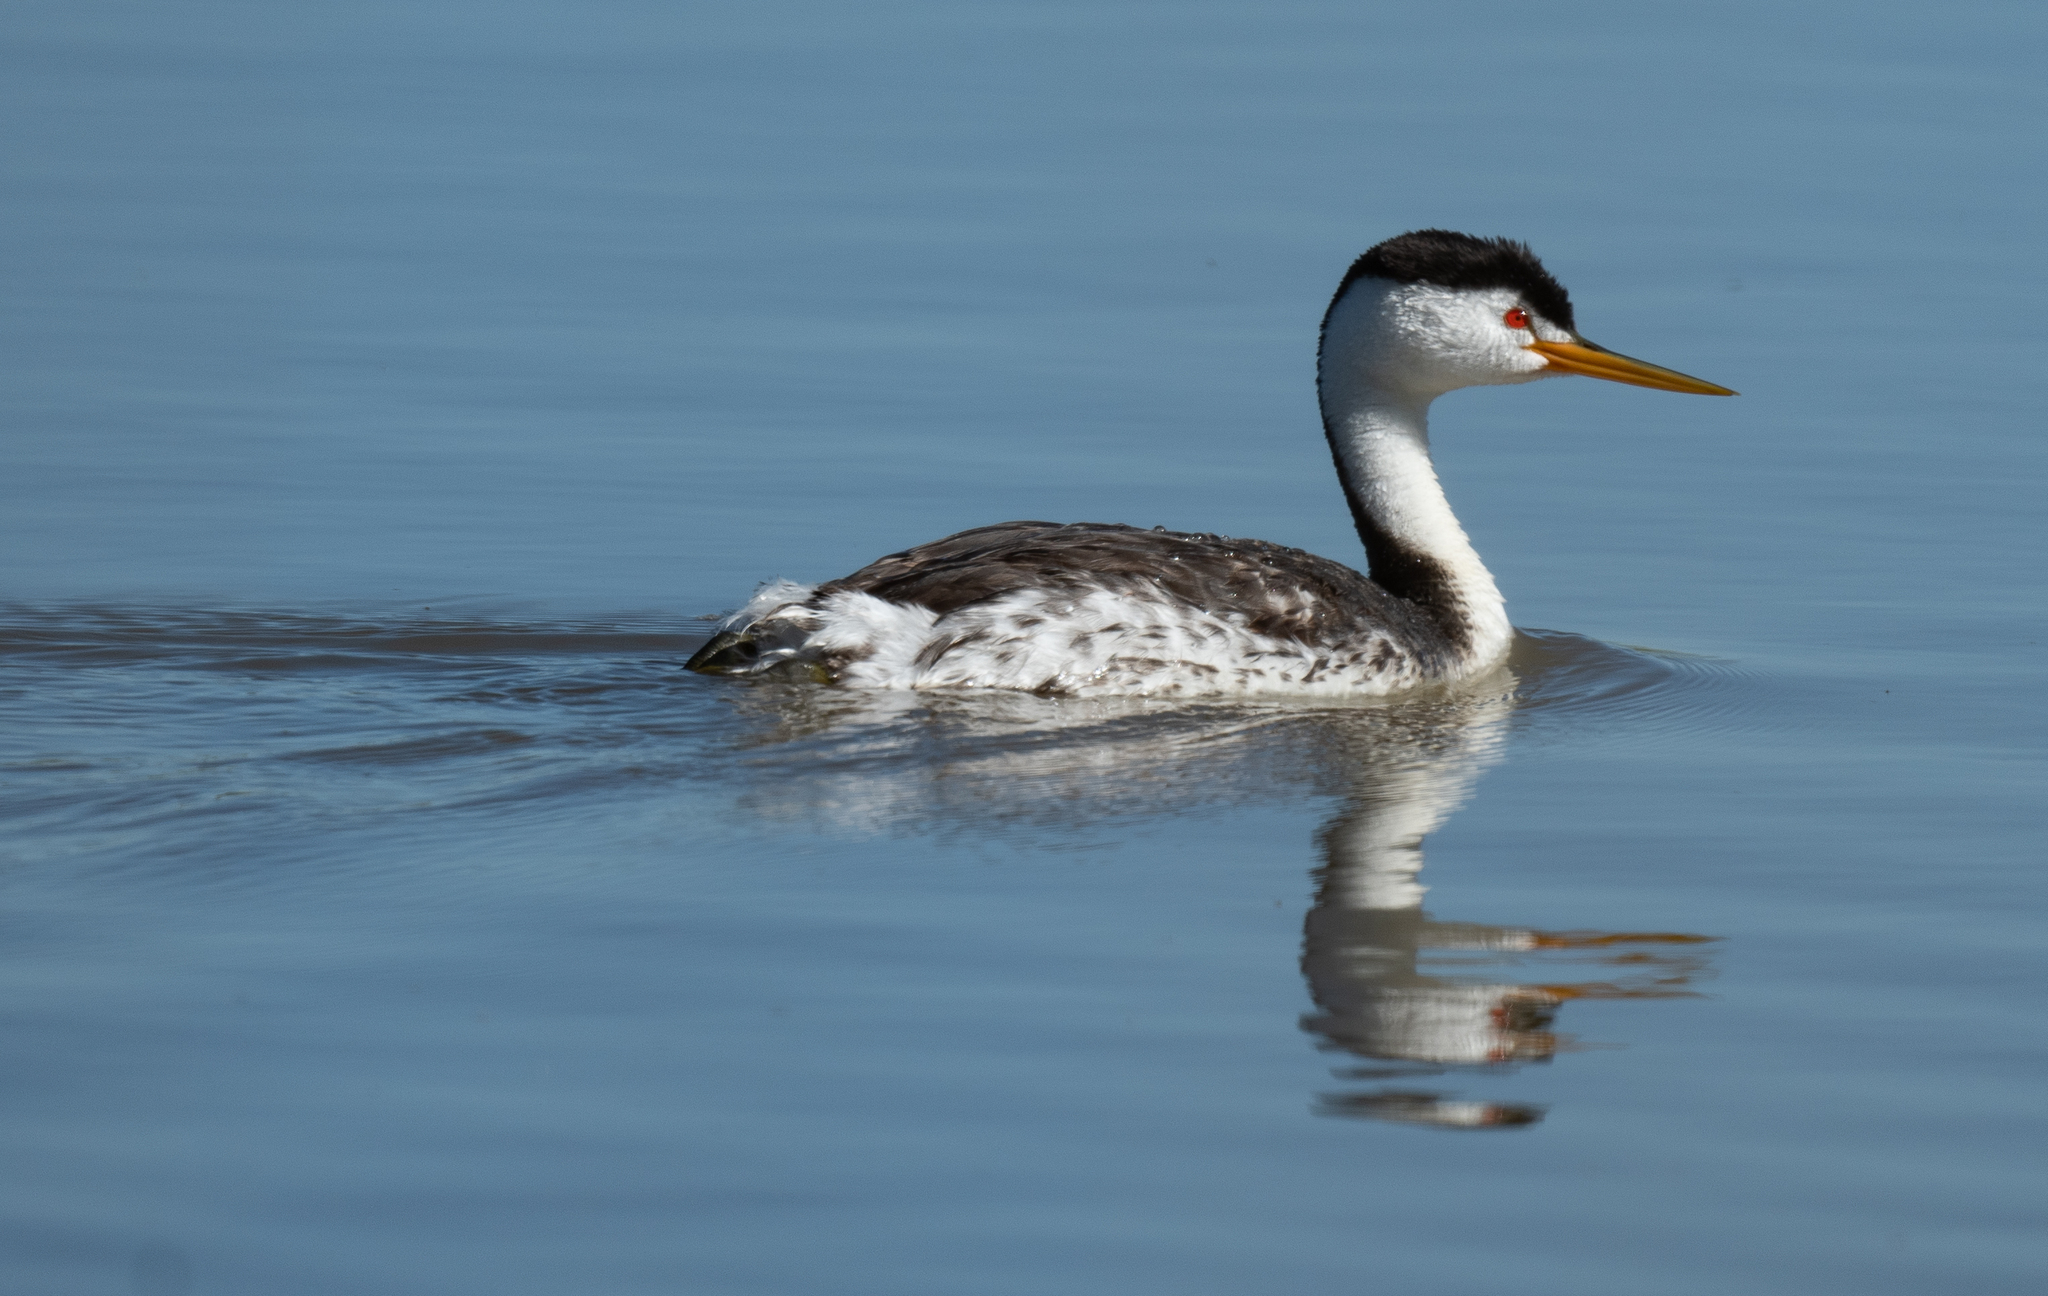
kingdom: Animalia
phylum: Chordata
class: Aves
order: Podicipediformes
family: Podicipedidae
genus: Aechmophorus
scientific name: Aechmophorus clarkii
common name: Clark's grebe
